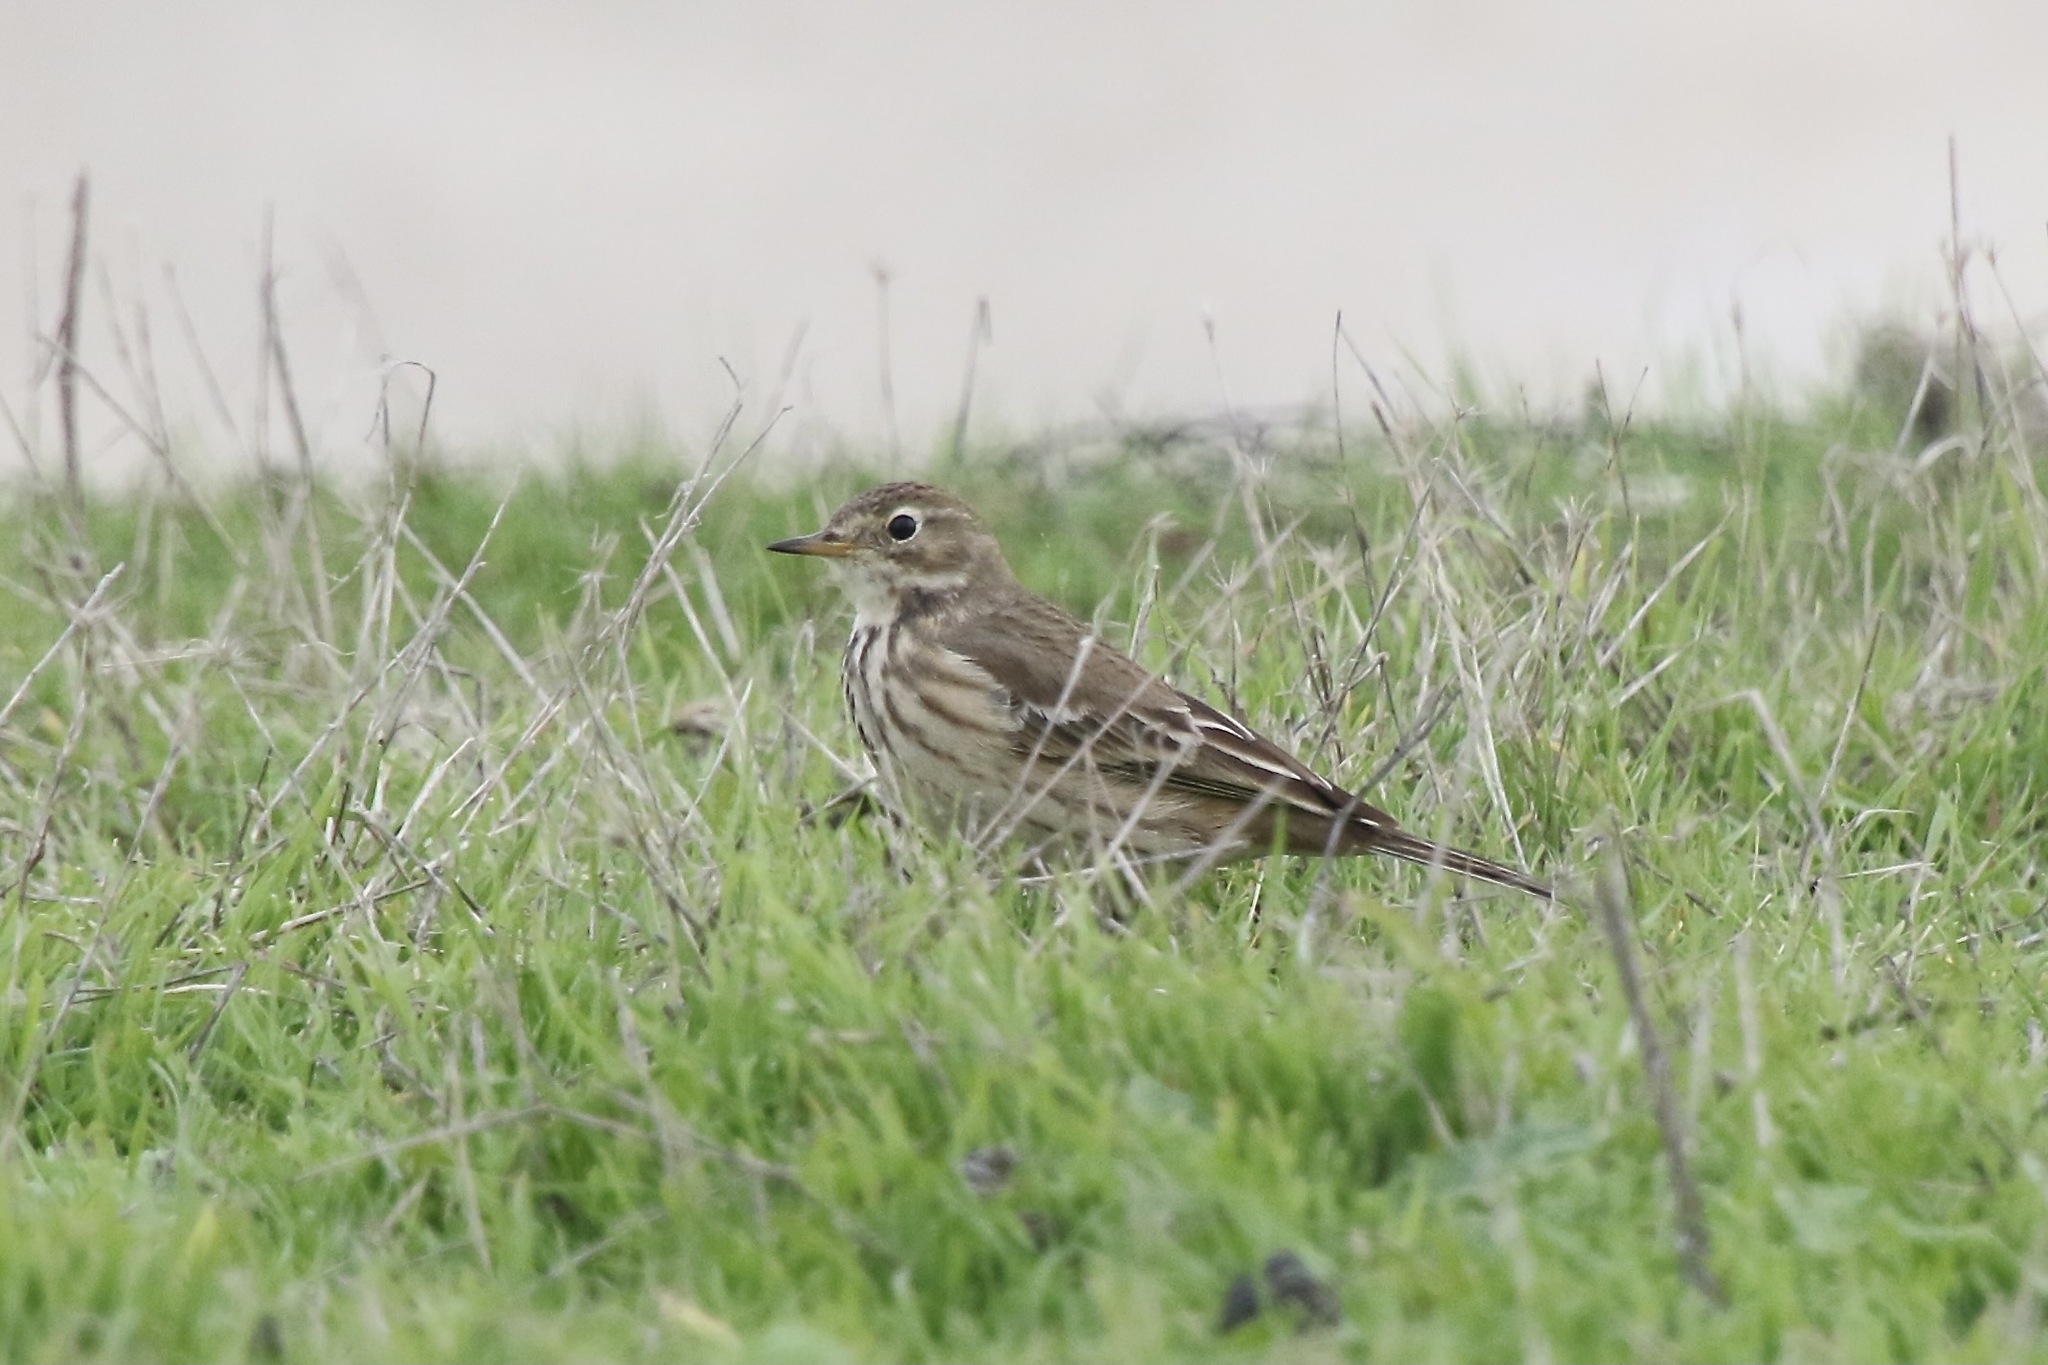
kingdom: Animalia
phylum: Chordata
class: Aves
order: Passeriformes
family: Motacillidae
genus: Anthus
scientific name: Anthus rubescens
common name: Buff-bellied pipit
